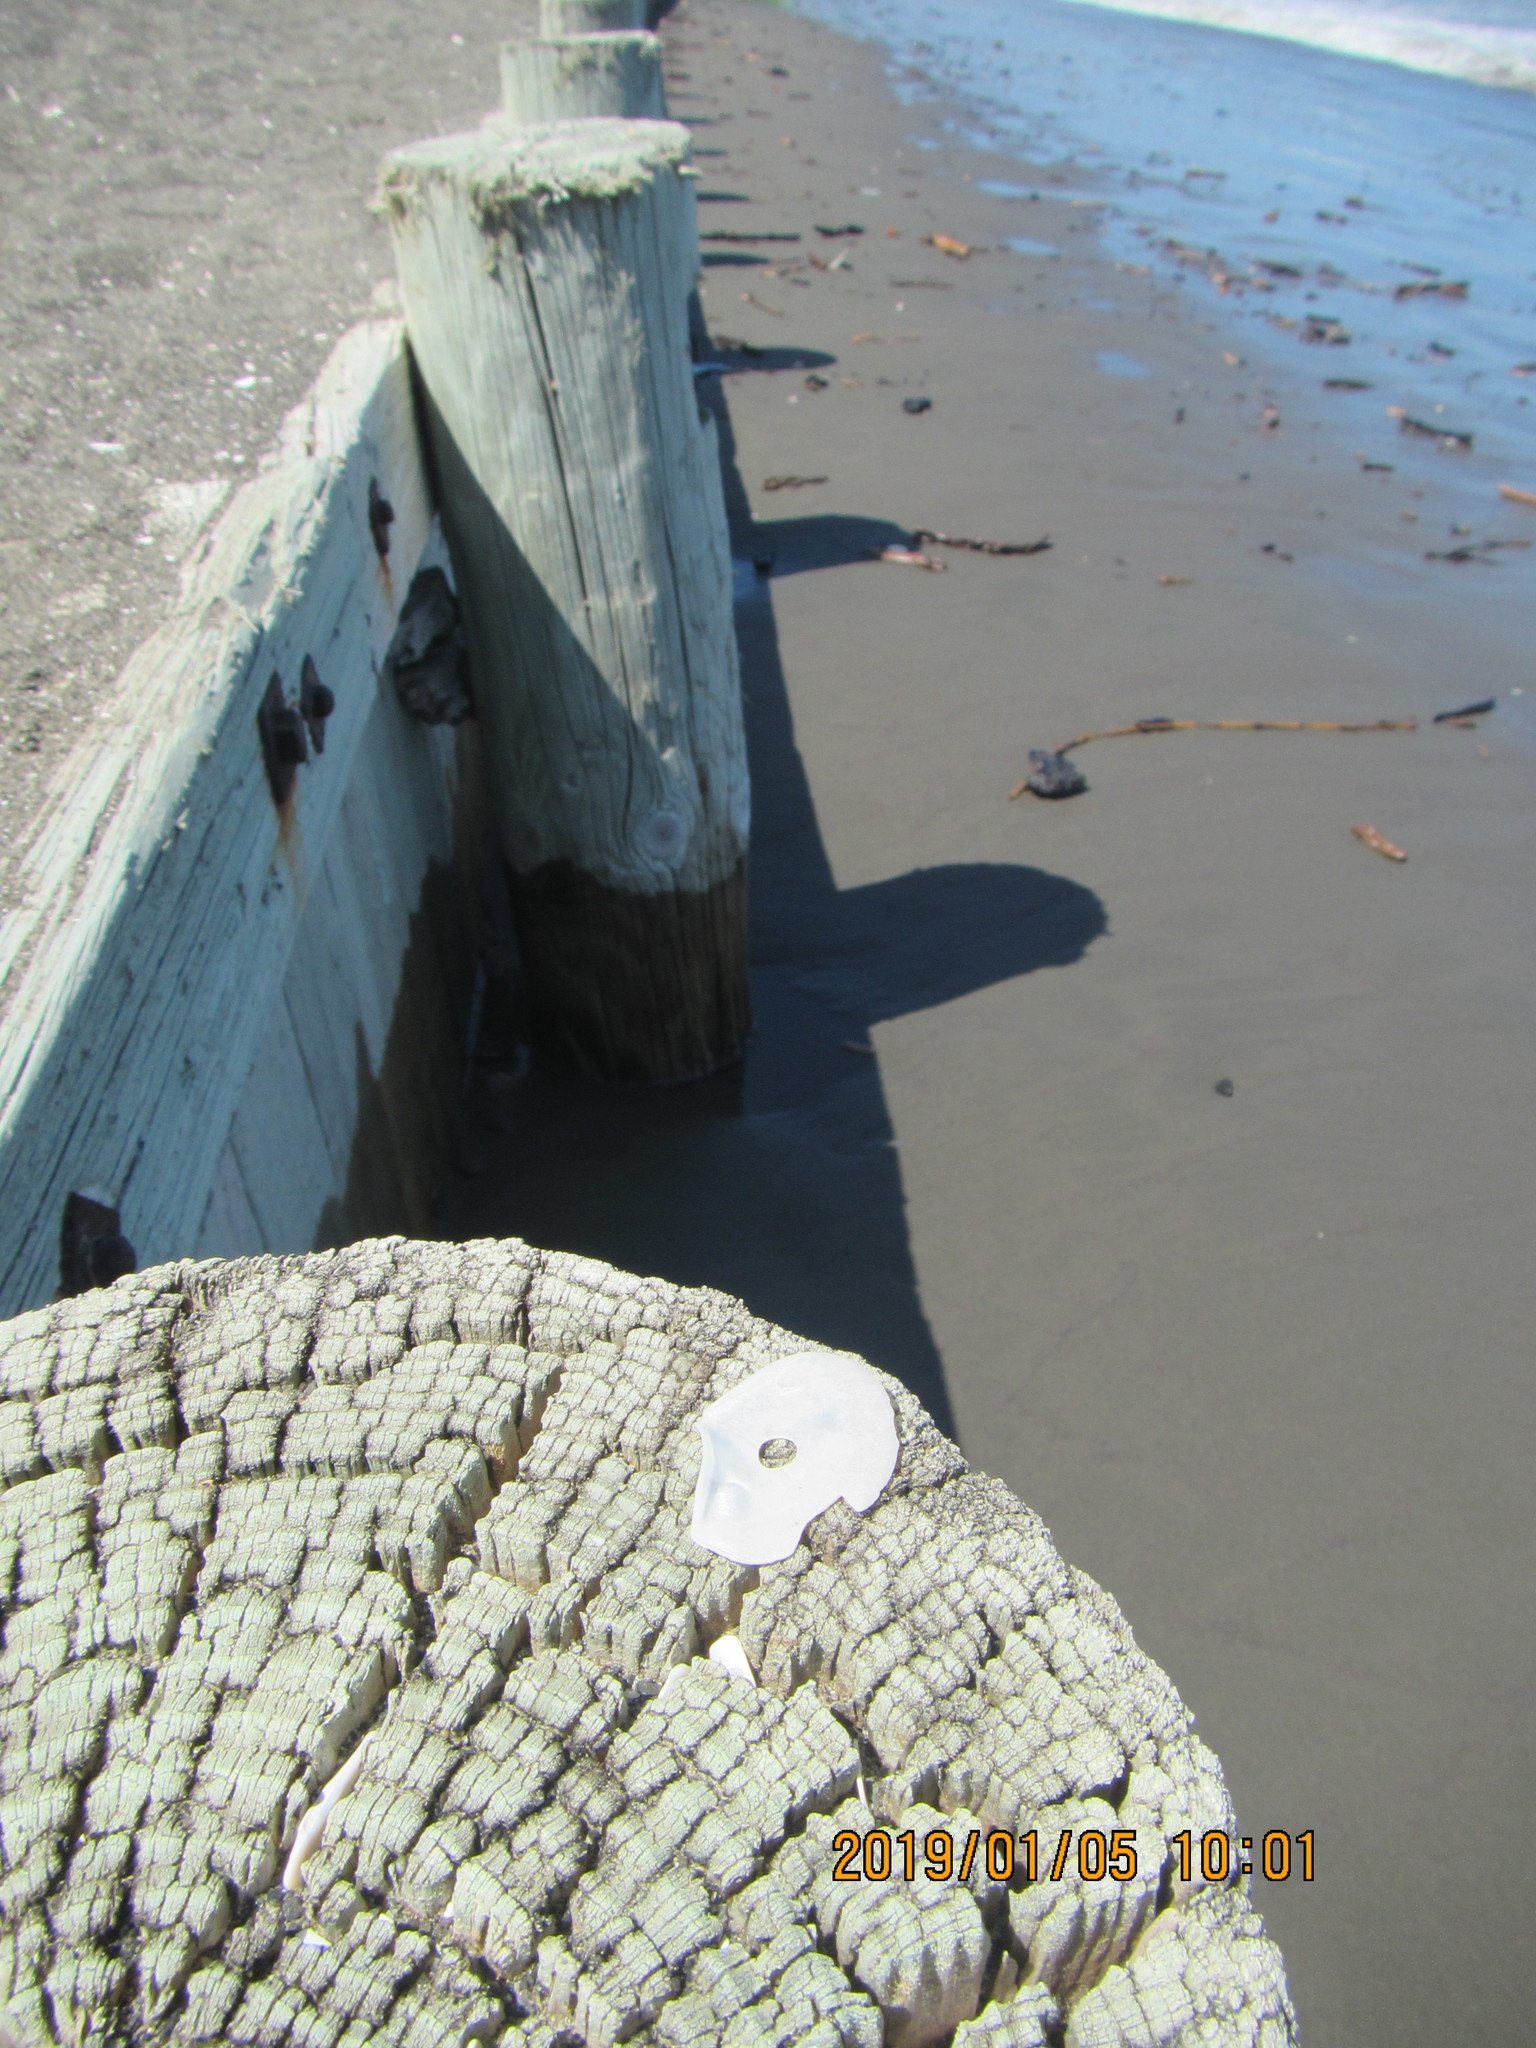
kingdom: Animalia
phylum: Mollusca
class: Bivalvia
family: Myochamidae
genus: Myadora
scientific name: Myadora striata
